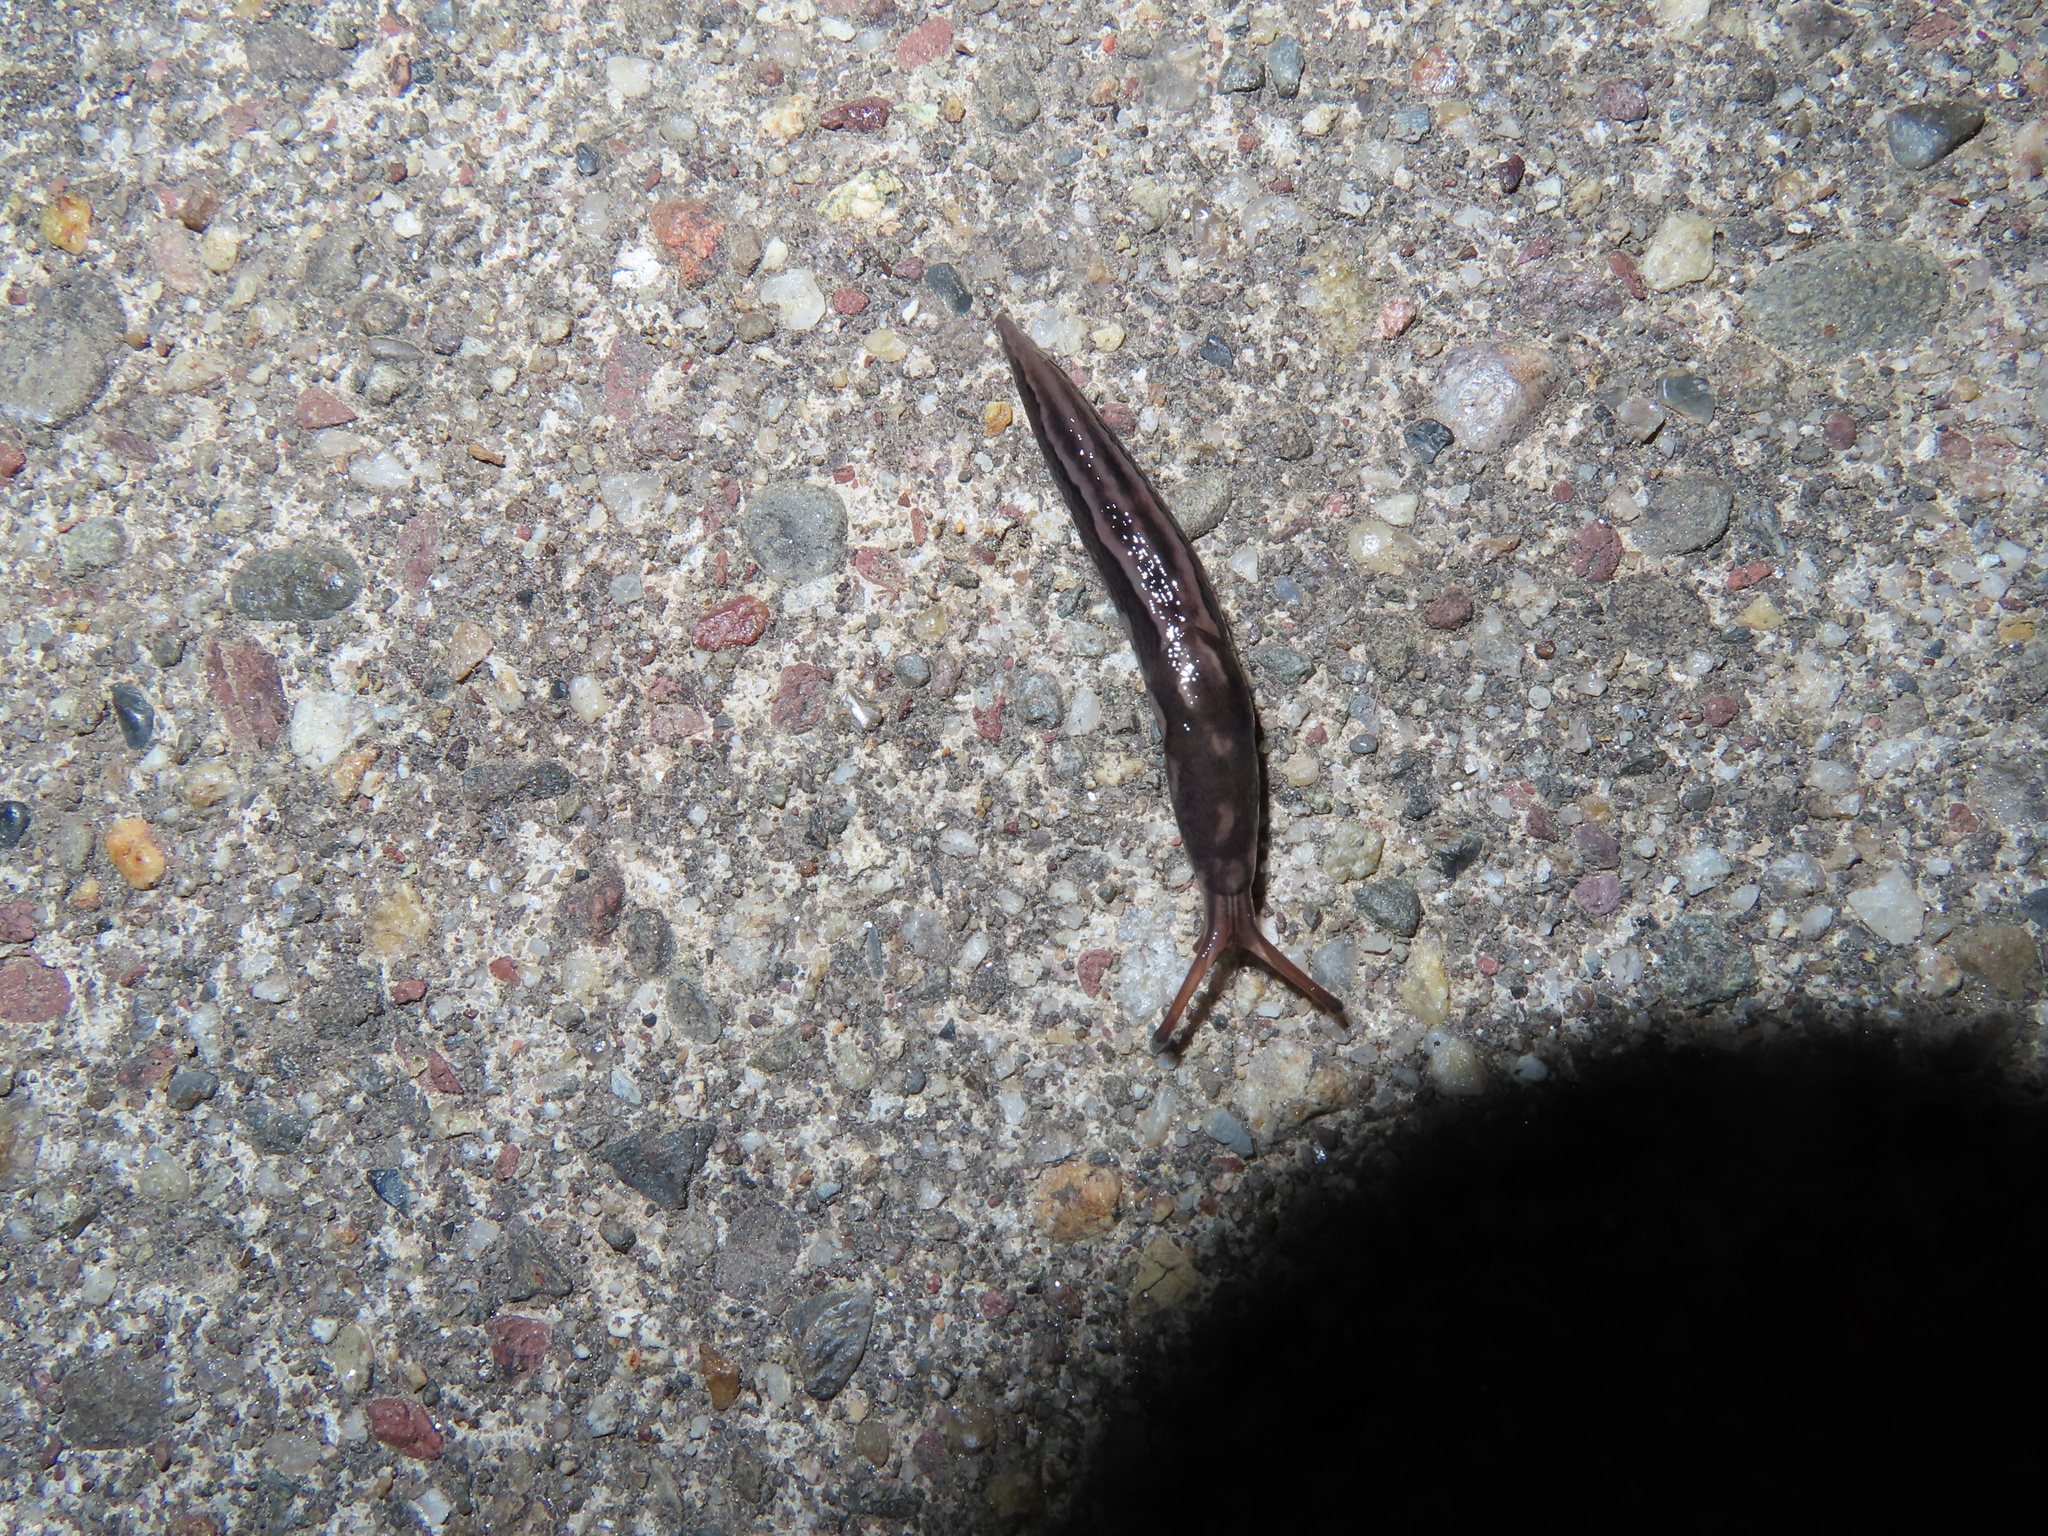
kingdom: Animalia
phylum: Mollusca
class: Gastropoda
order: Stylommatophora
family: Limacidae
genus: Limax
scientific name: Limax maximus
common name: Great grey slug
